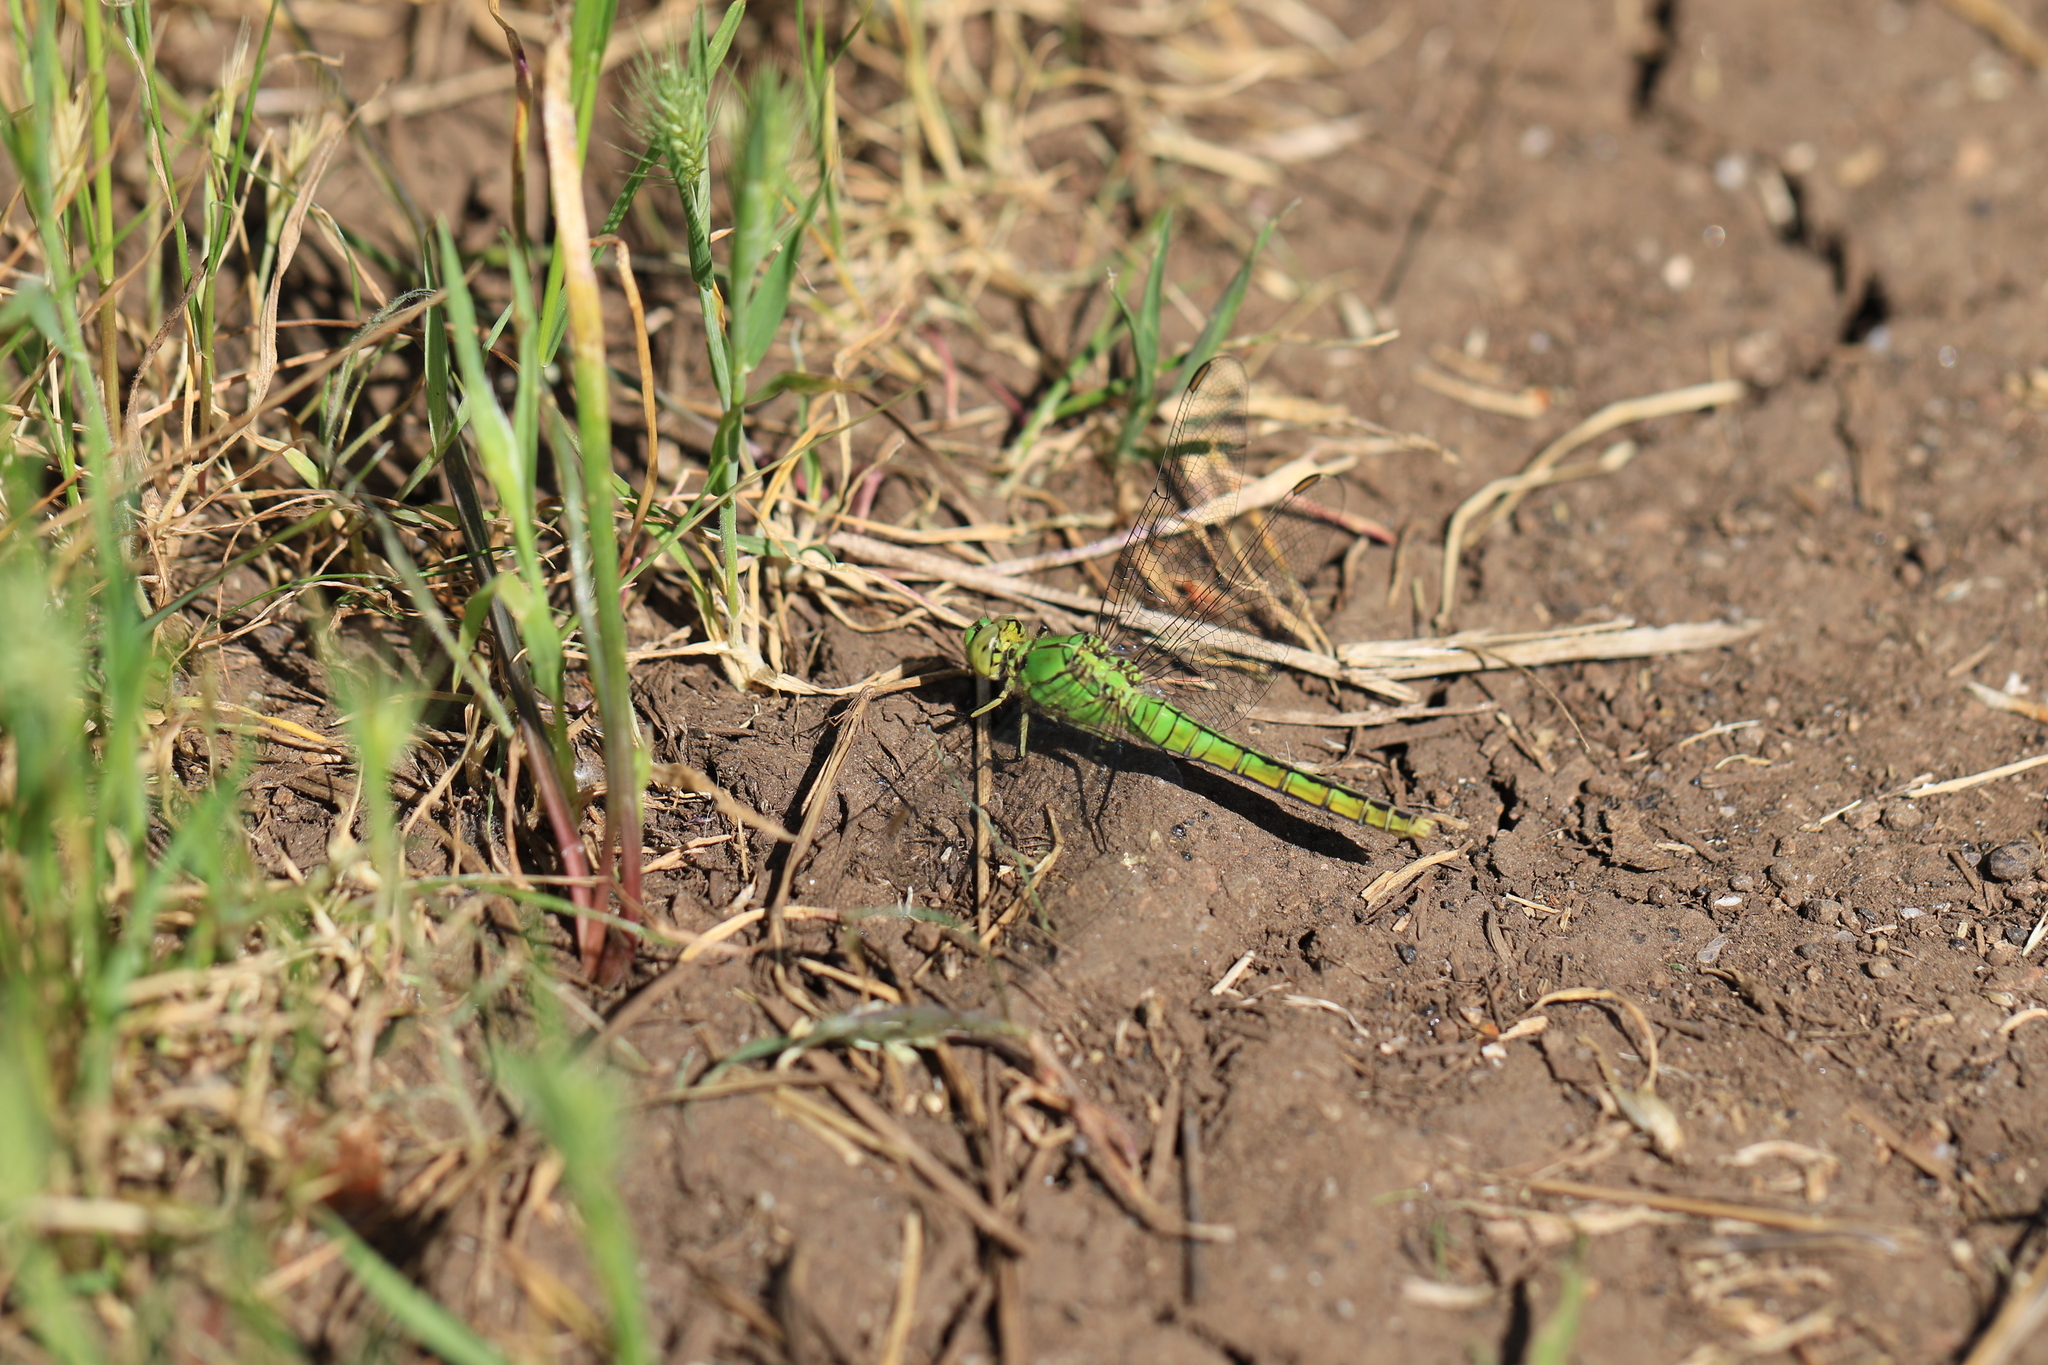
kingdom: Animalia
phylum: Arthropoda
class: Insecta
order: Odonata
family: Libellulidae
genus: Erythemis
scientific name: Erythemis collocata
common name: Western pondhawk
